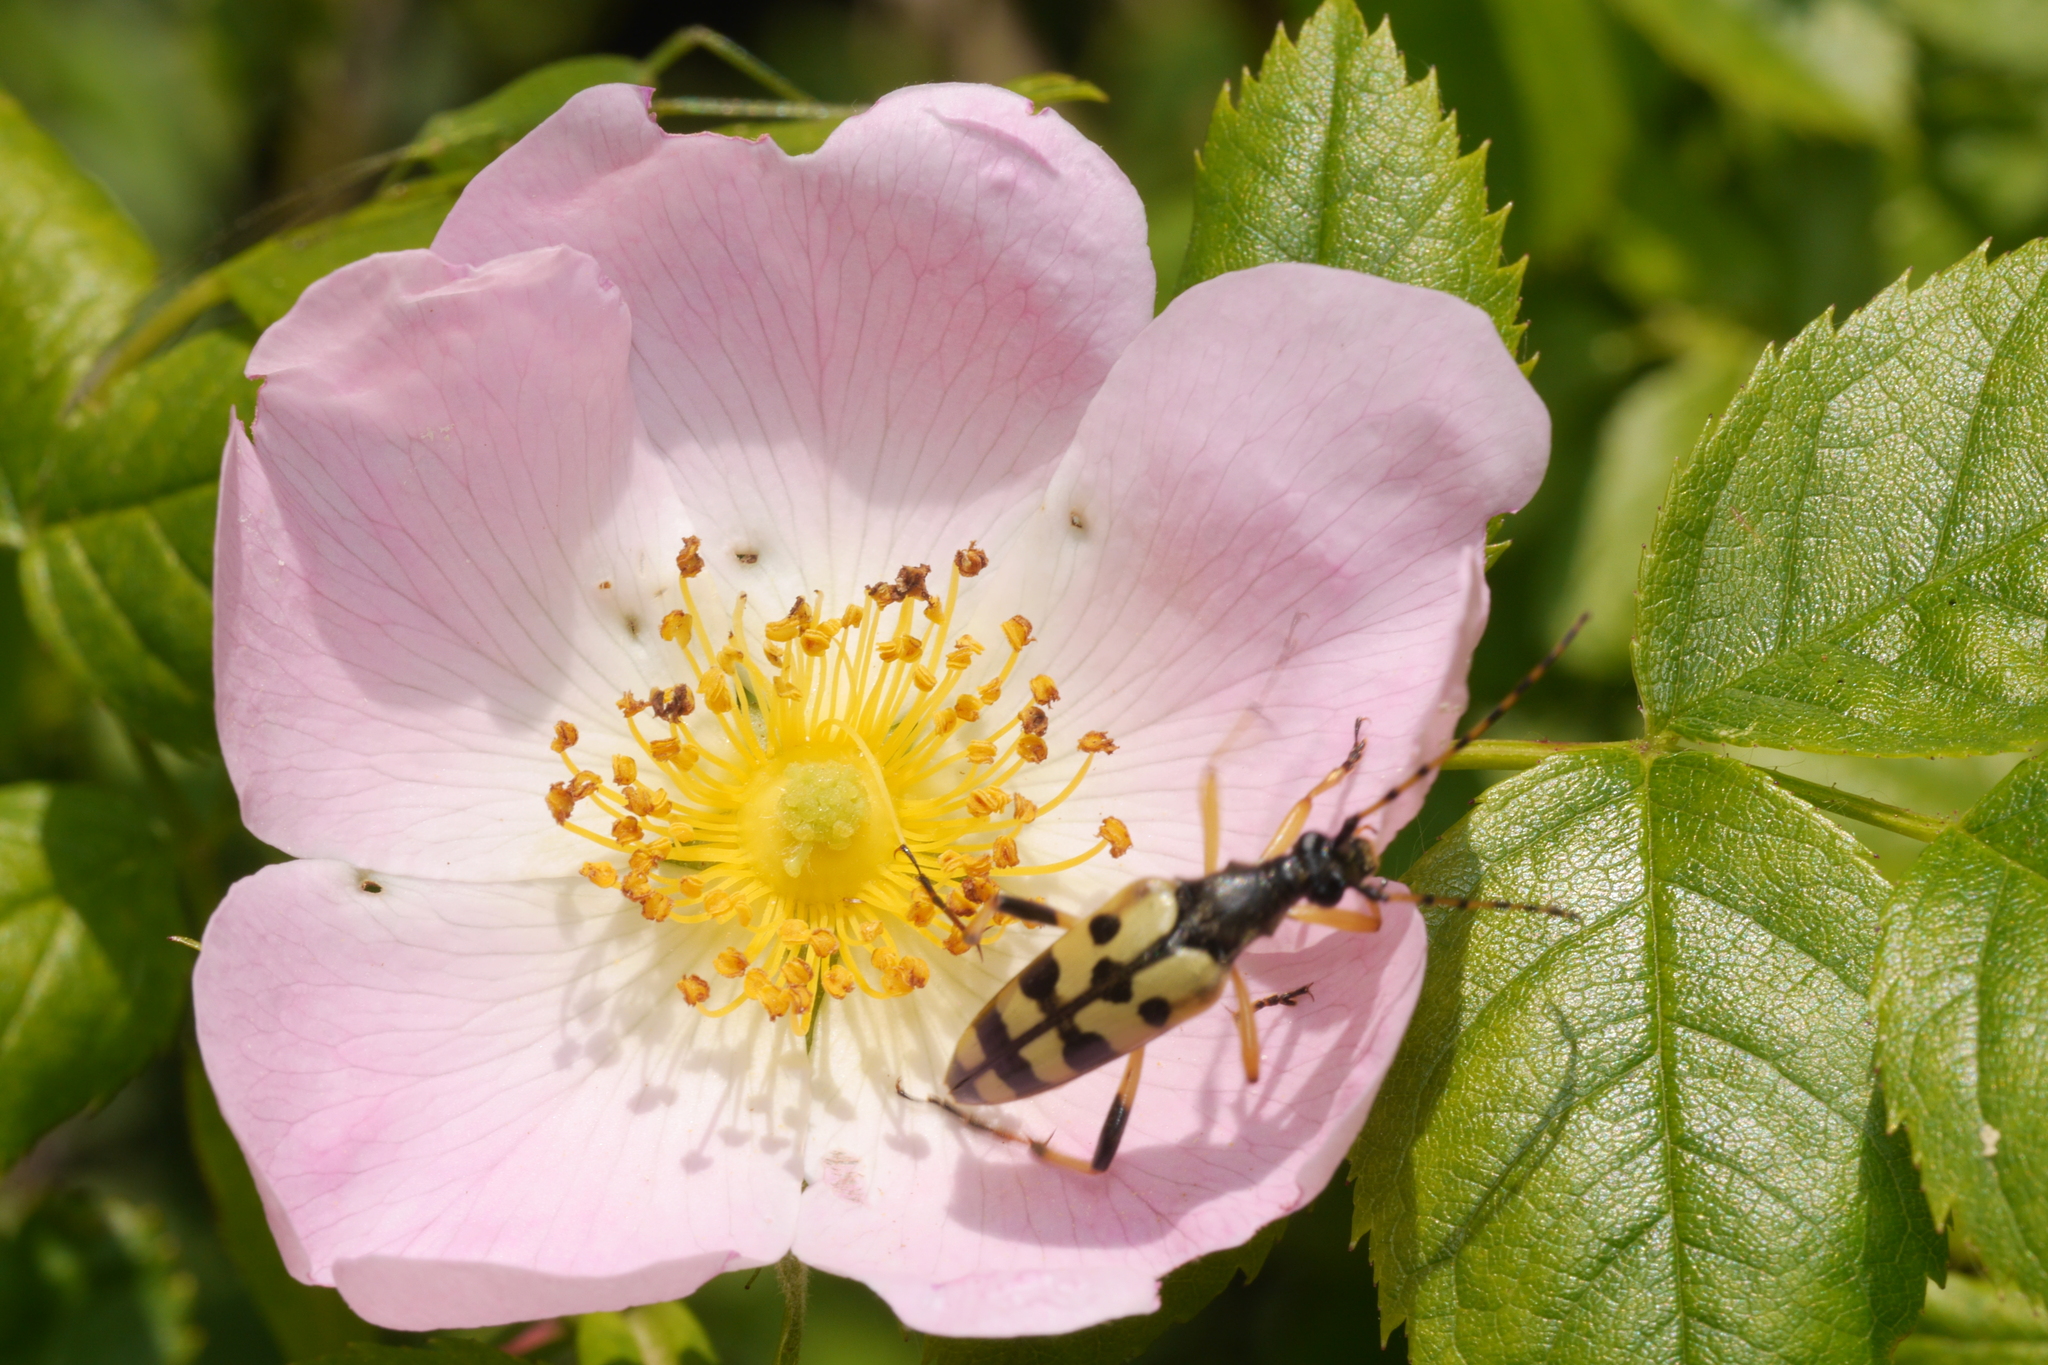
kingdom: Animalia
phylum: Arthropoda
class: Insecta
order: Coleoptera
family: Cerambycidae
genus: Rutpela
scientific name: Rutpela maculata
